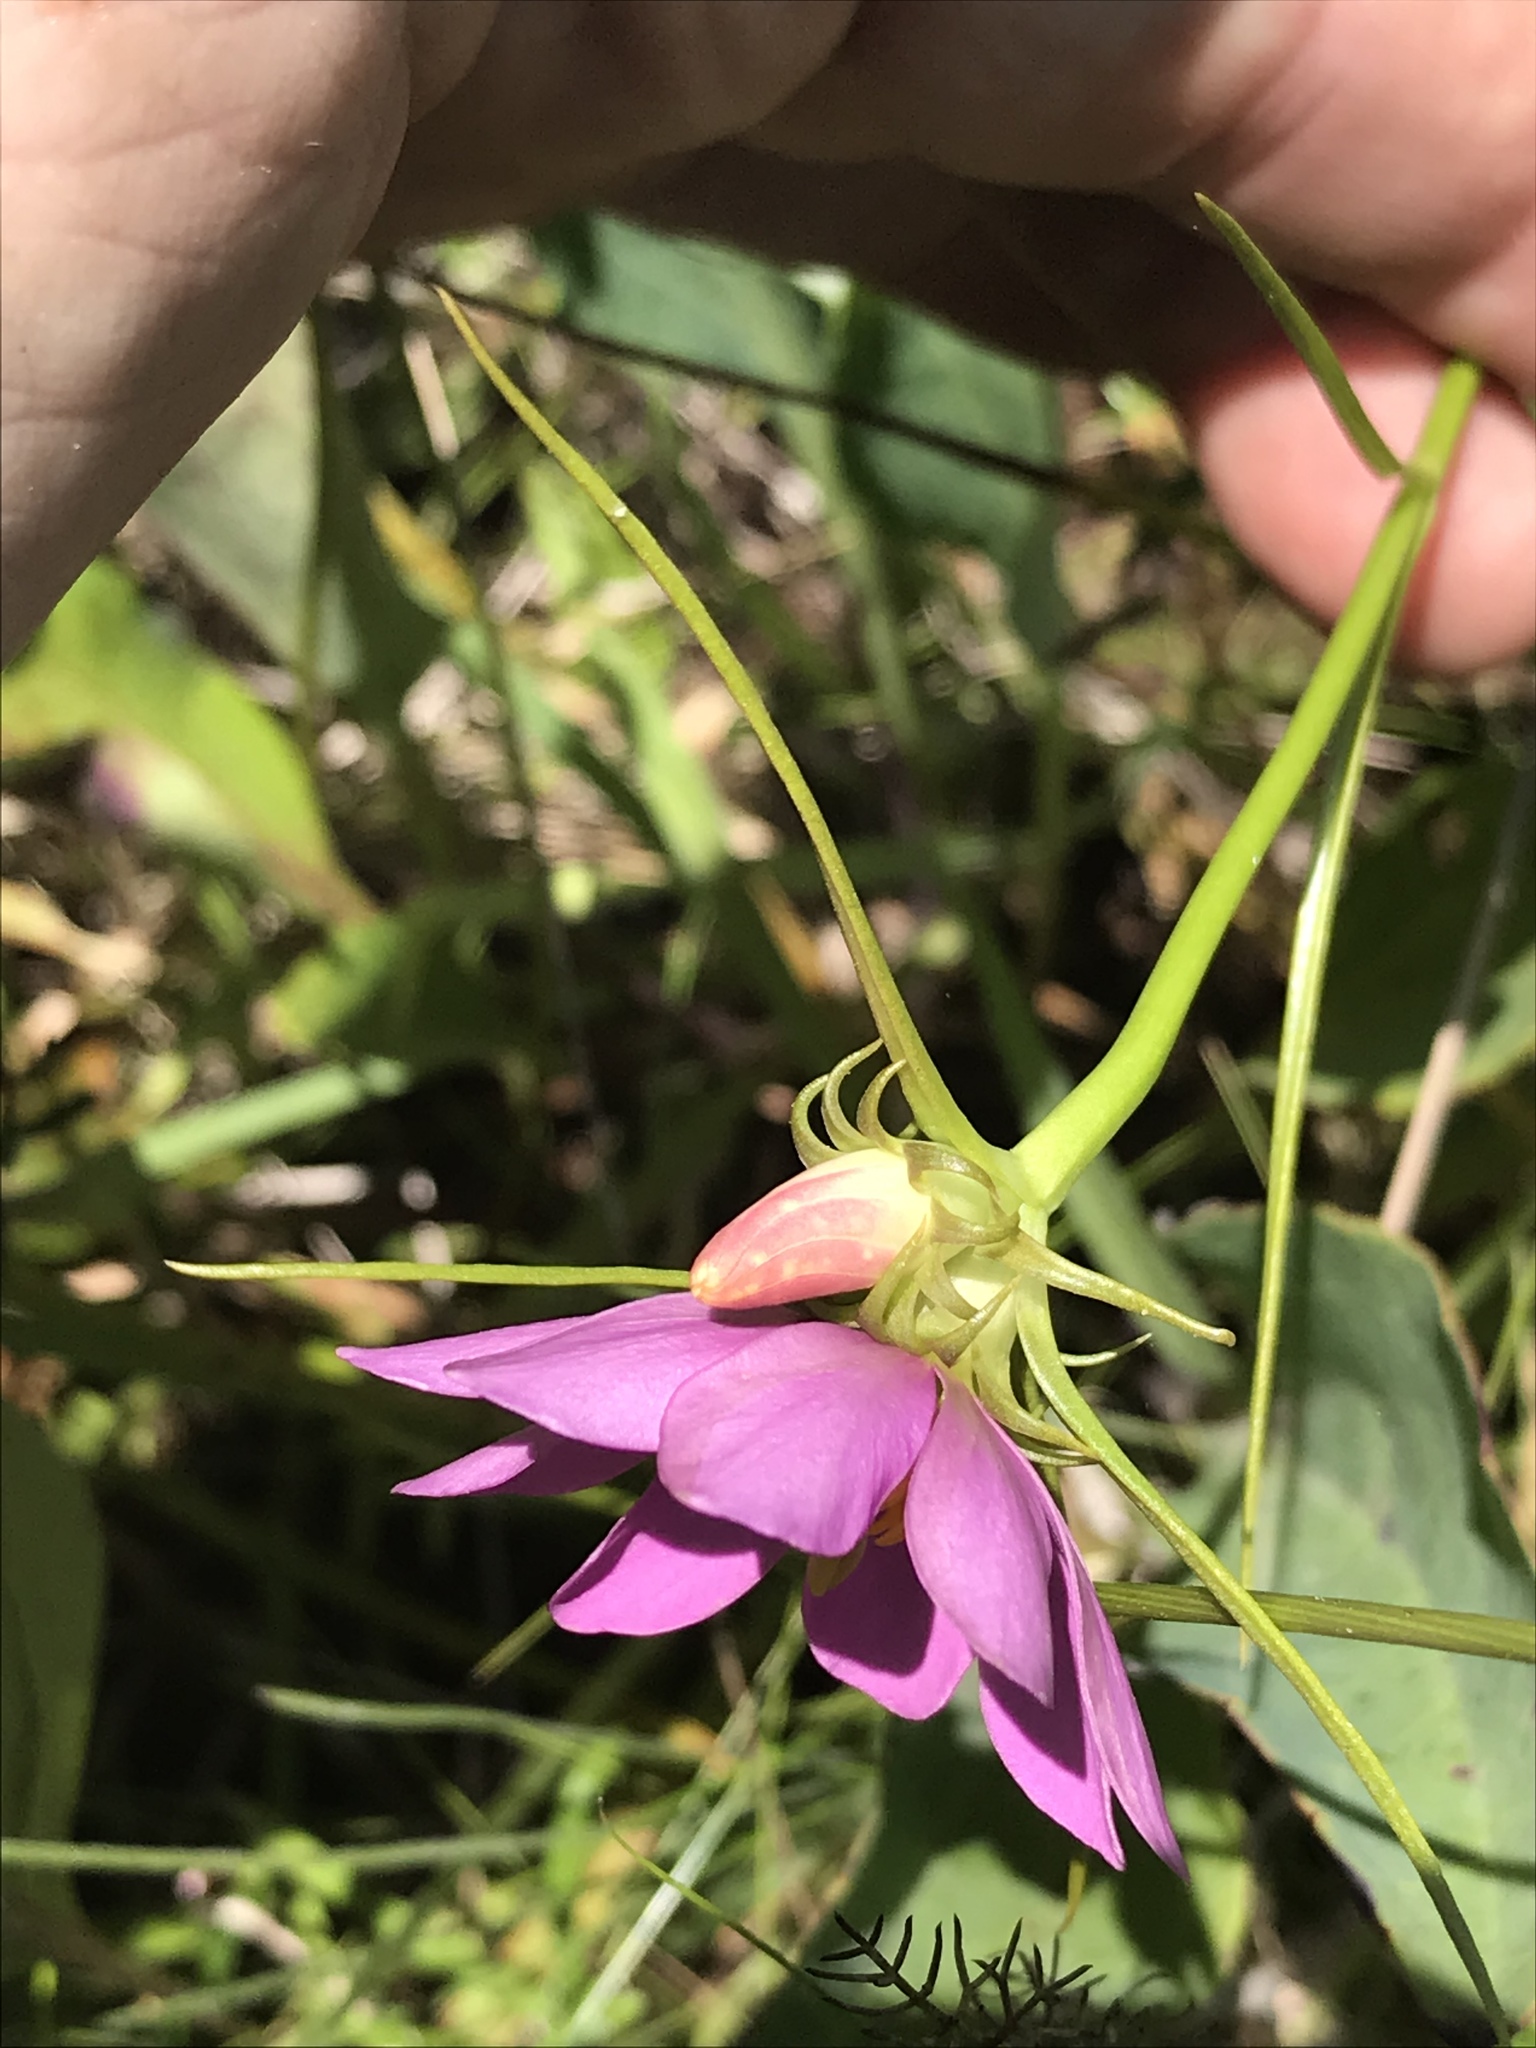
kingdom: Plantae
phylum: Tracheophyta
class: Magnoliopsida
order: Gentianales
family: Gentianaceae
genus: Sabatia
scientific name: Sabatia gentianoides
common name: Pinewoods rose-gentian
